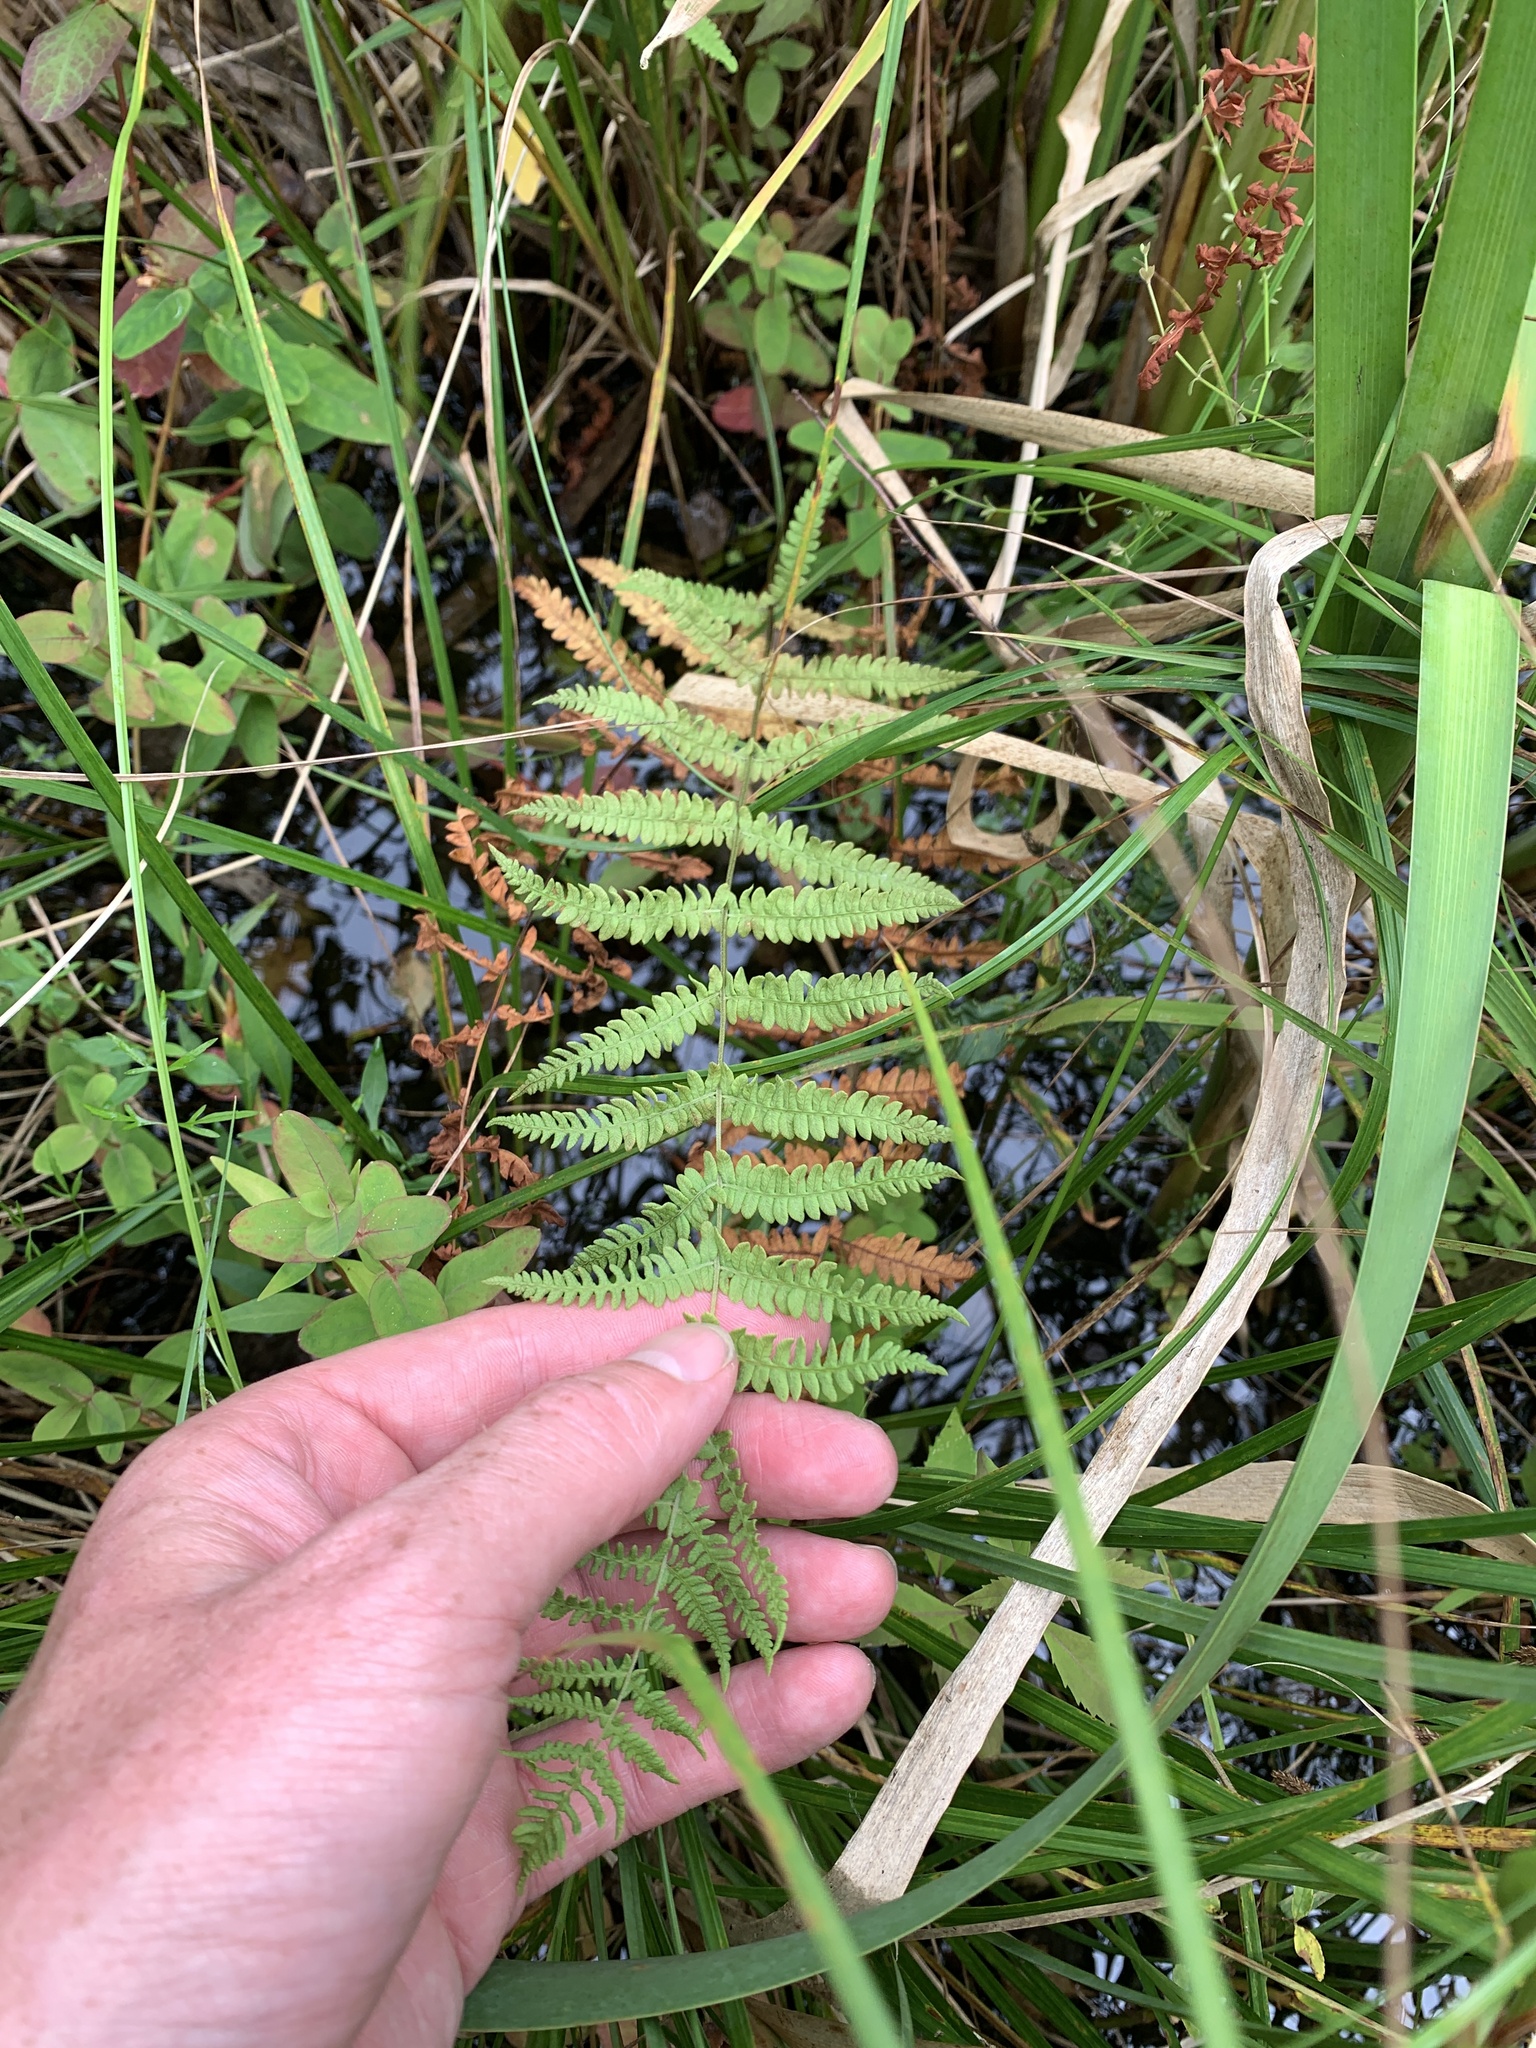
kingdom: Plantae
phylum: Tracheophyta
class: Polypodiopsida
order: Polypodiales
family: Thelypteridaceae
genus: Thelypteris
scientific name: Thelypteris palustris
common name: Marsh fern
